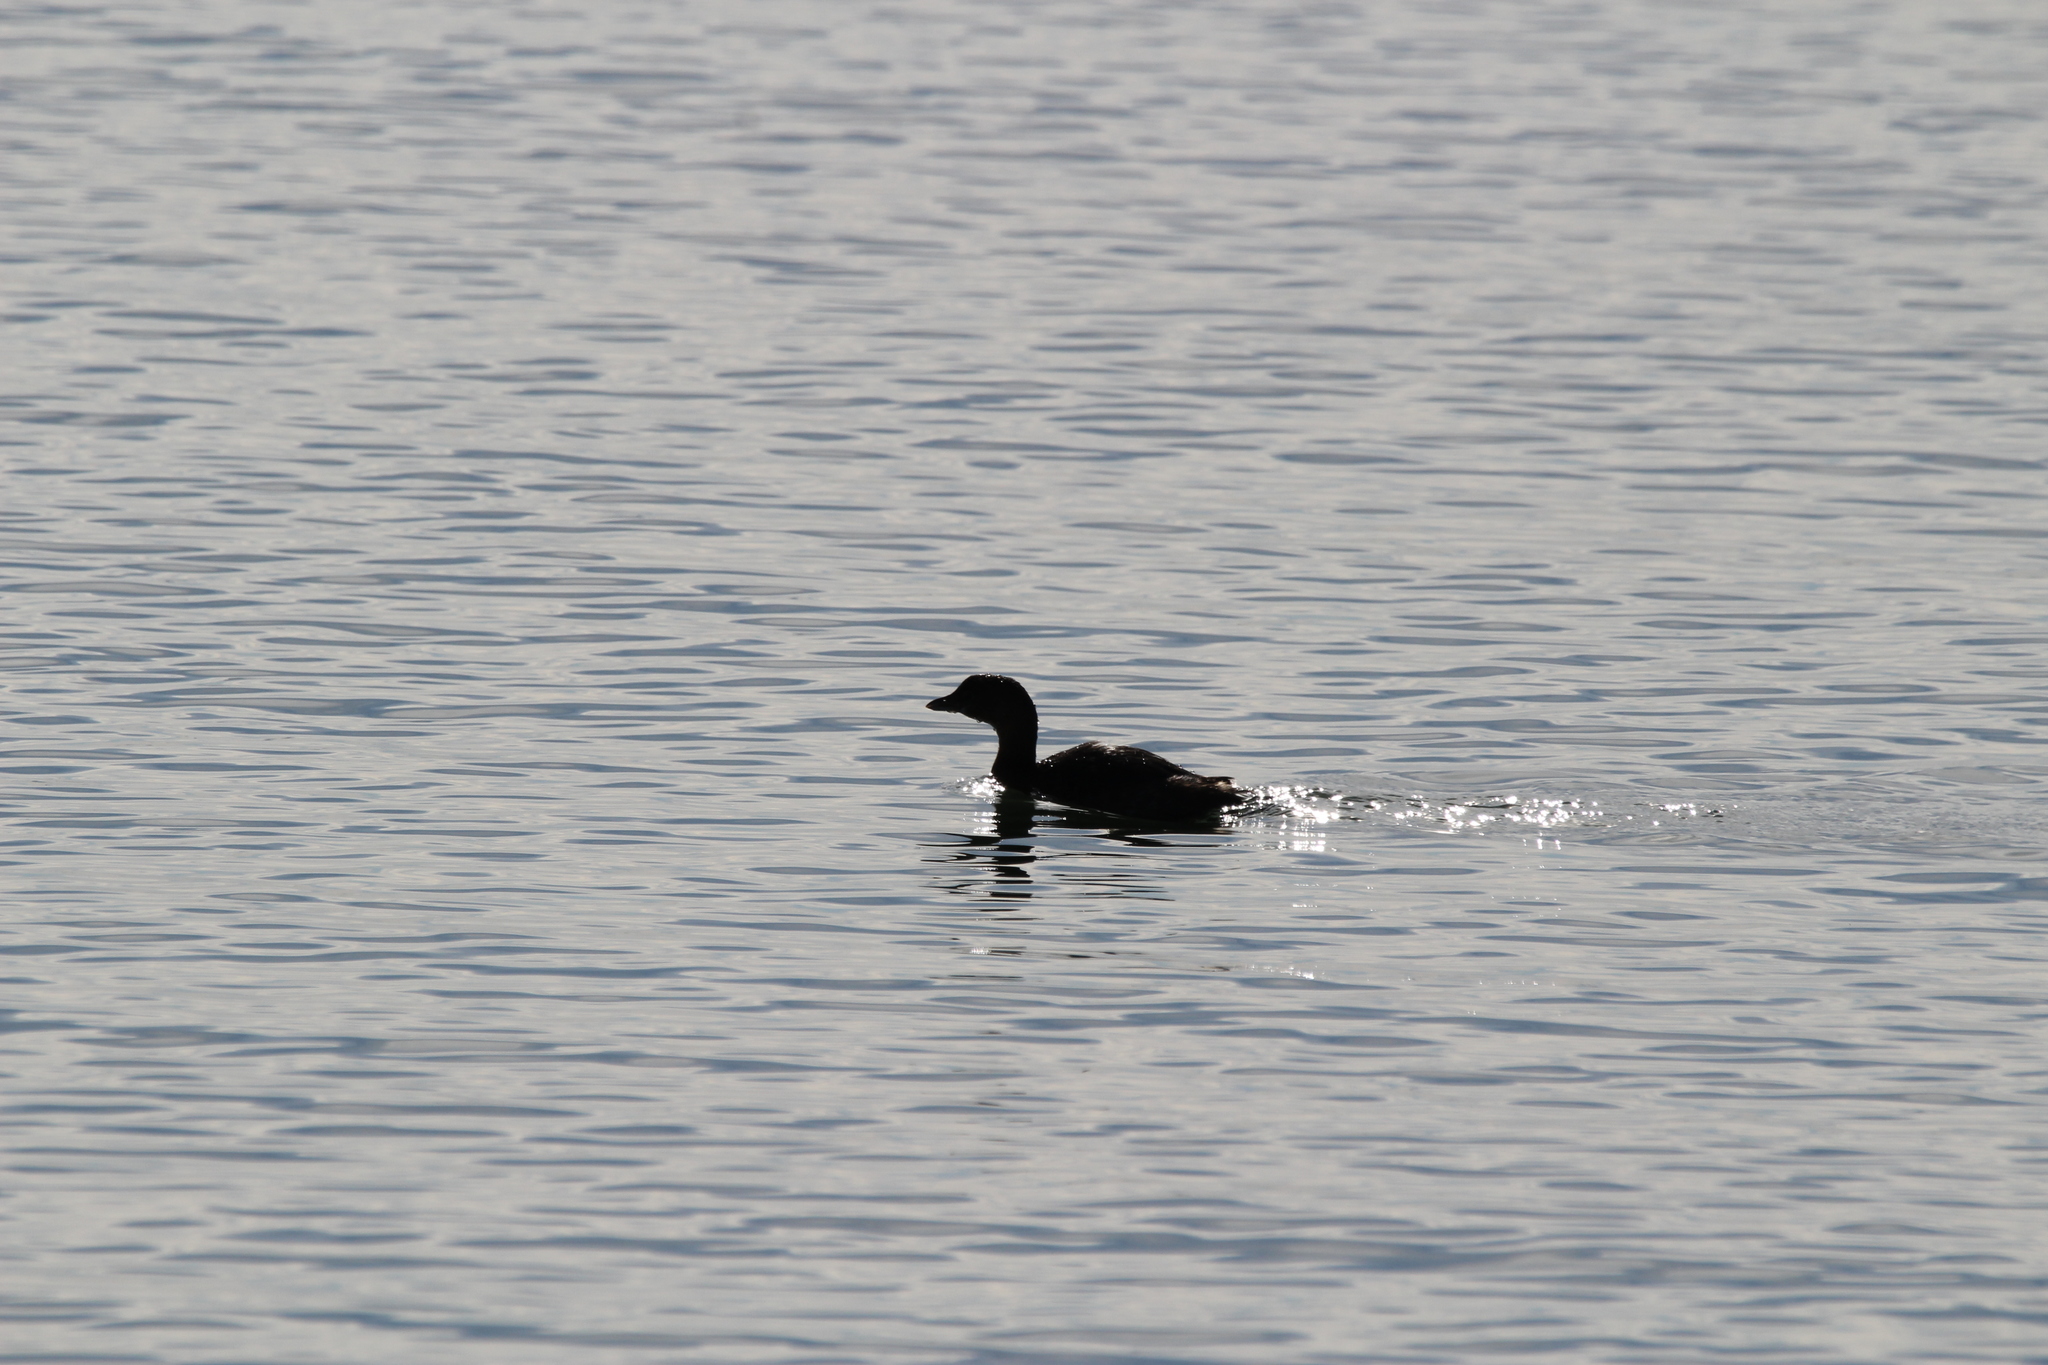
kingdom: Animalia
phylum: Chordata
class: Aves
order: Podicipediformes
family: Podicipedidae
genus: Podilymbus
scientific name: Podilymbus podiceps
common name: Pied-billed grebe
